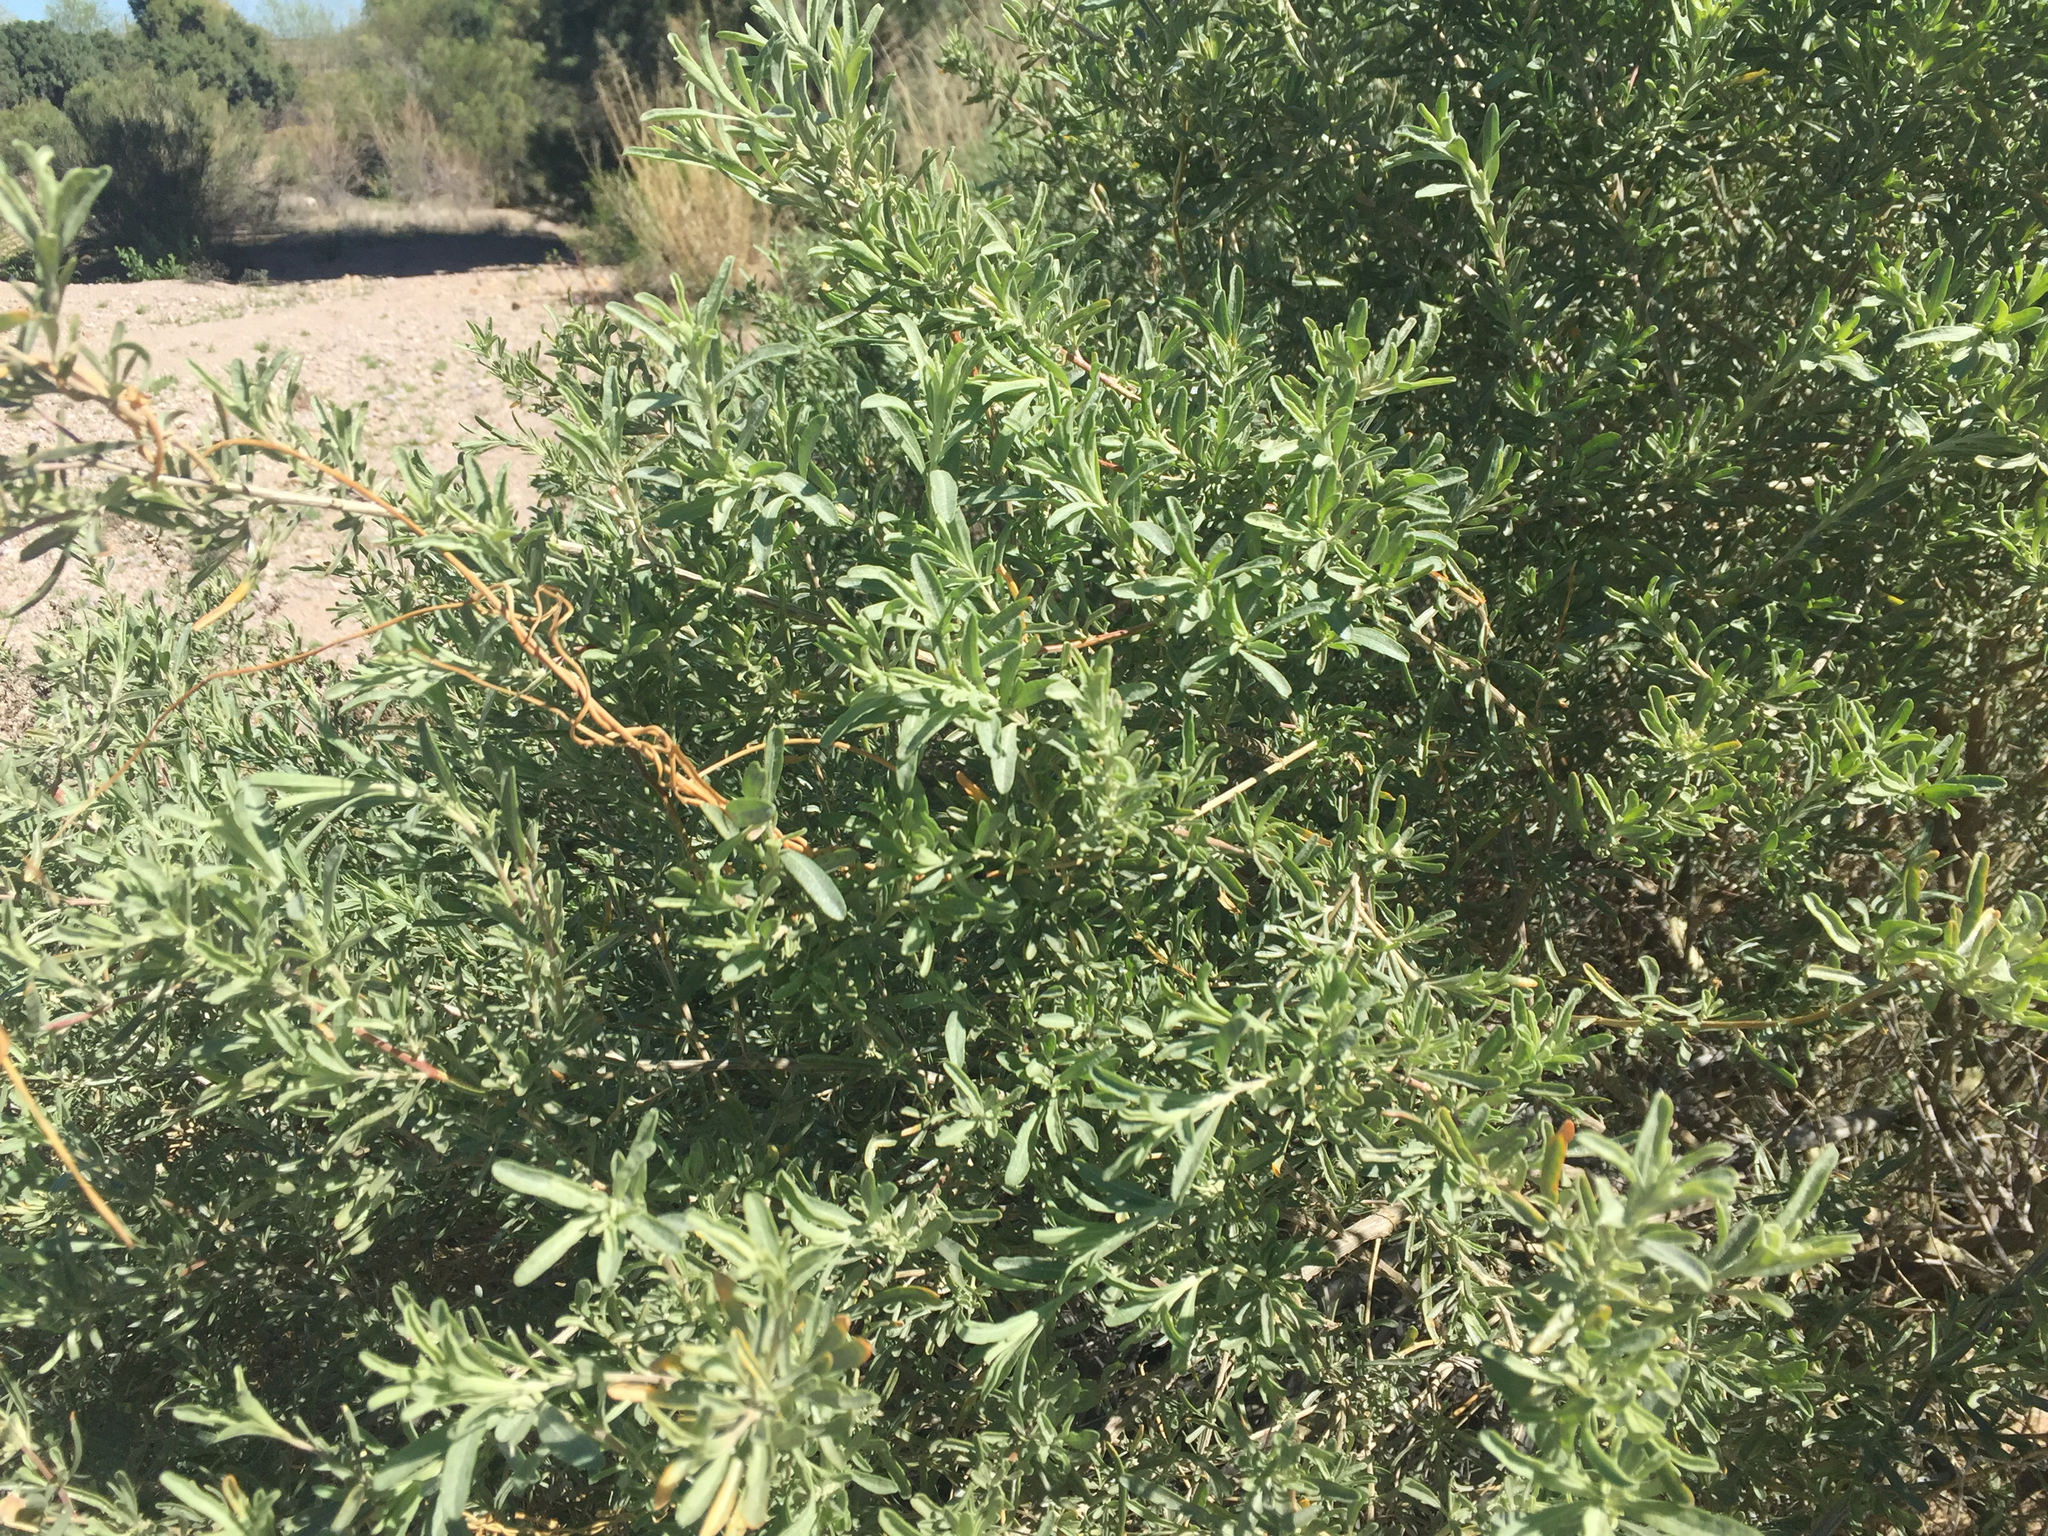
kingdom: Plantae
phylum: Tracheophyta
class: Magnoliopsida
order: Caryophyllales
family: Amaranthaceae
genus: Atriplex
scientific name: Atriplex canescens
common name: Four-wing saltbush
